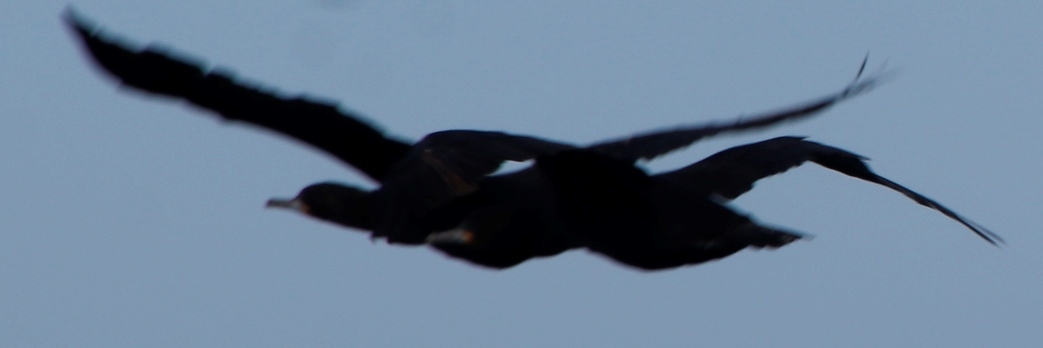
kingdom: Animalia
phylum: Chordata
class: Aves
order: Suliformes
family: Phalacrocoracidae
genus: Phalacrocorax
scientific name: Phalacrocorax capensis
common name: Cape cormorant
